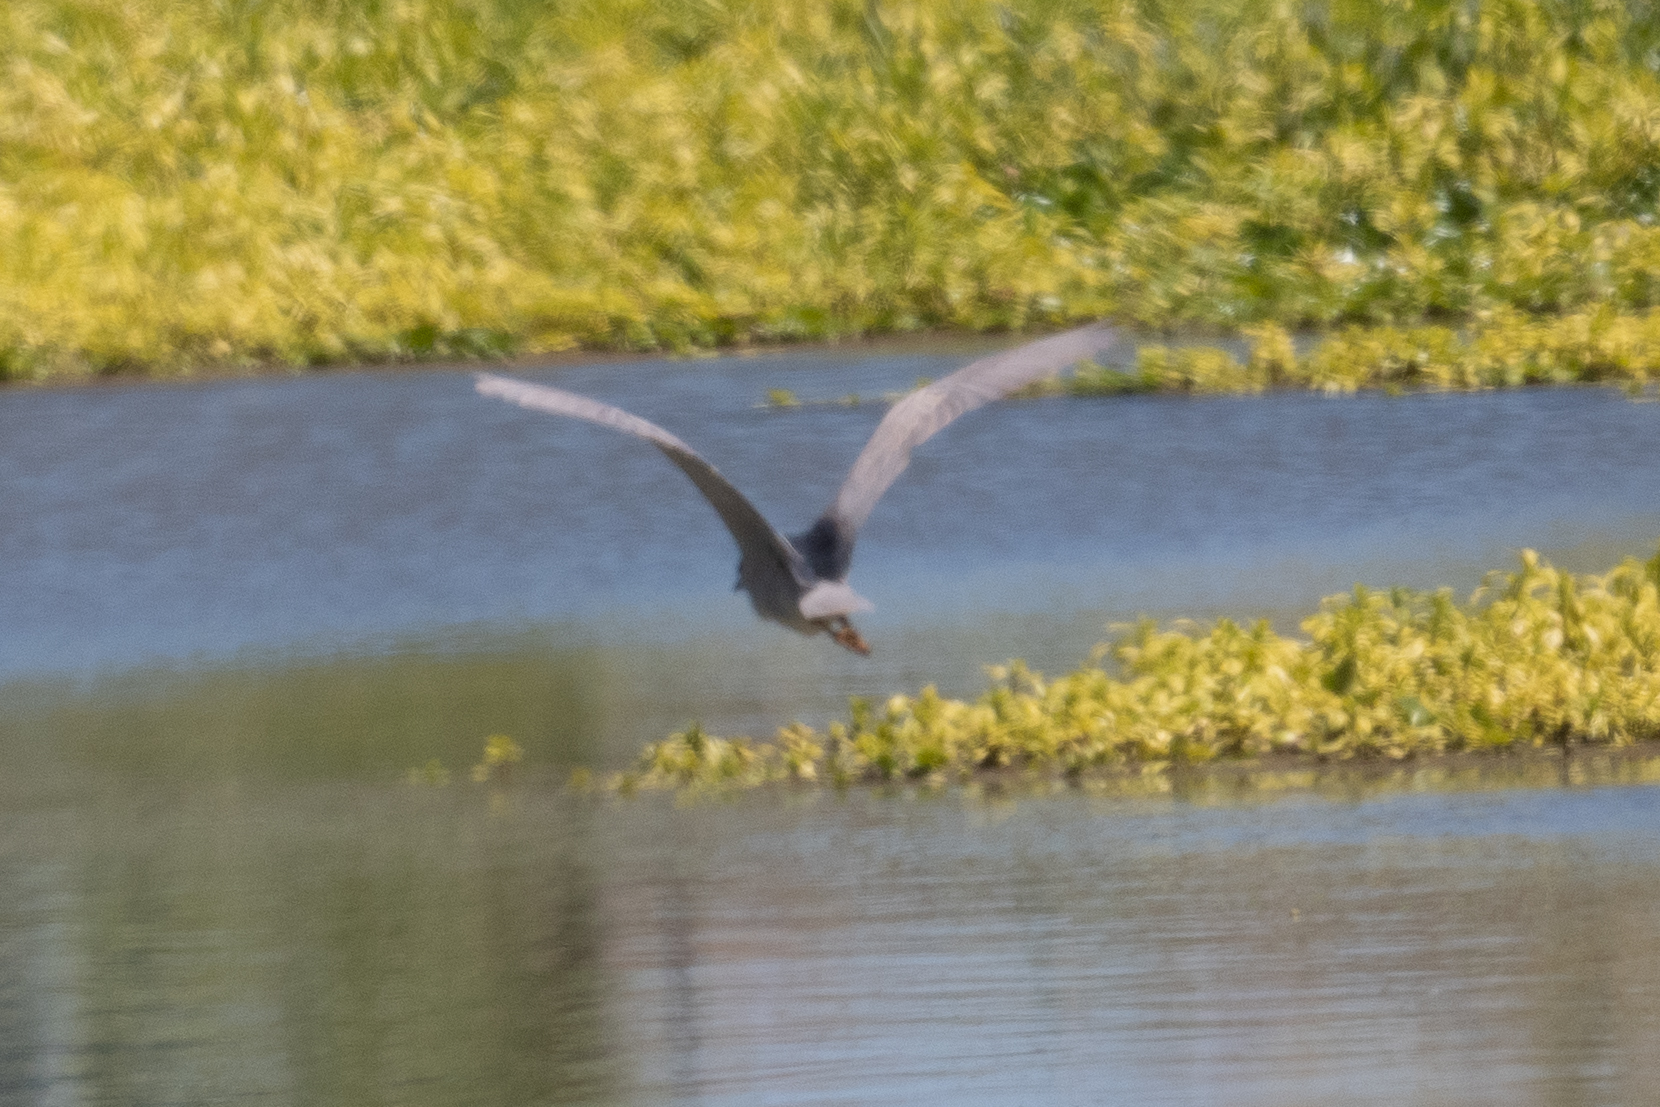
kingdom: Animalia
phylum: Chordata
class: Aves
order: Pelecaniformes
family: Ardeidae
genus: Nycticorax
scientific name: Nycticorax nycticorax
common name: Black-crowned night heron
